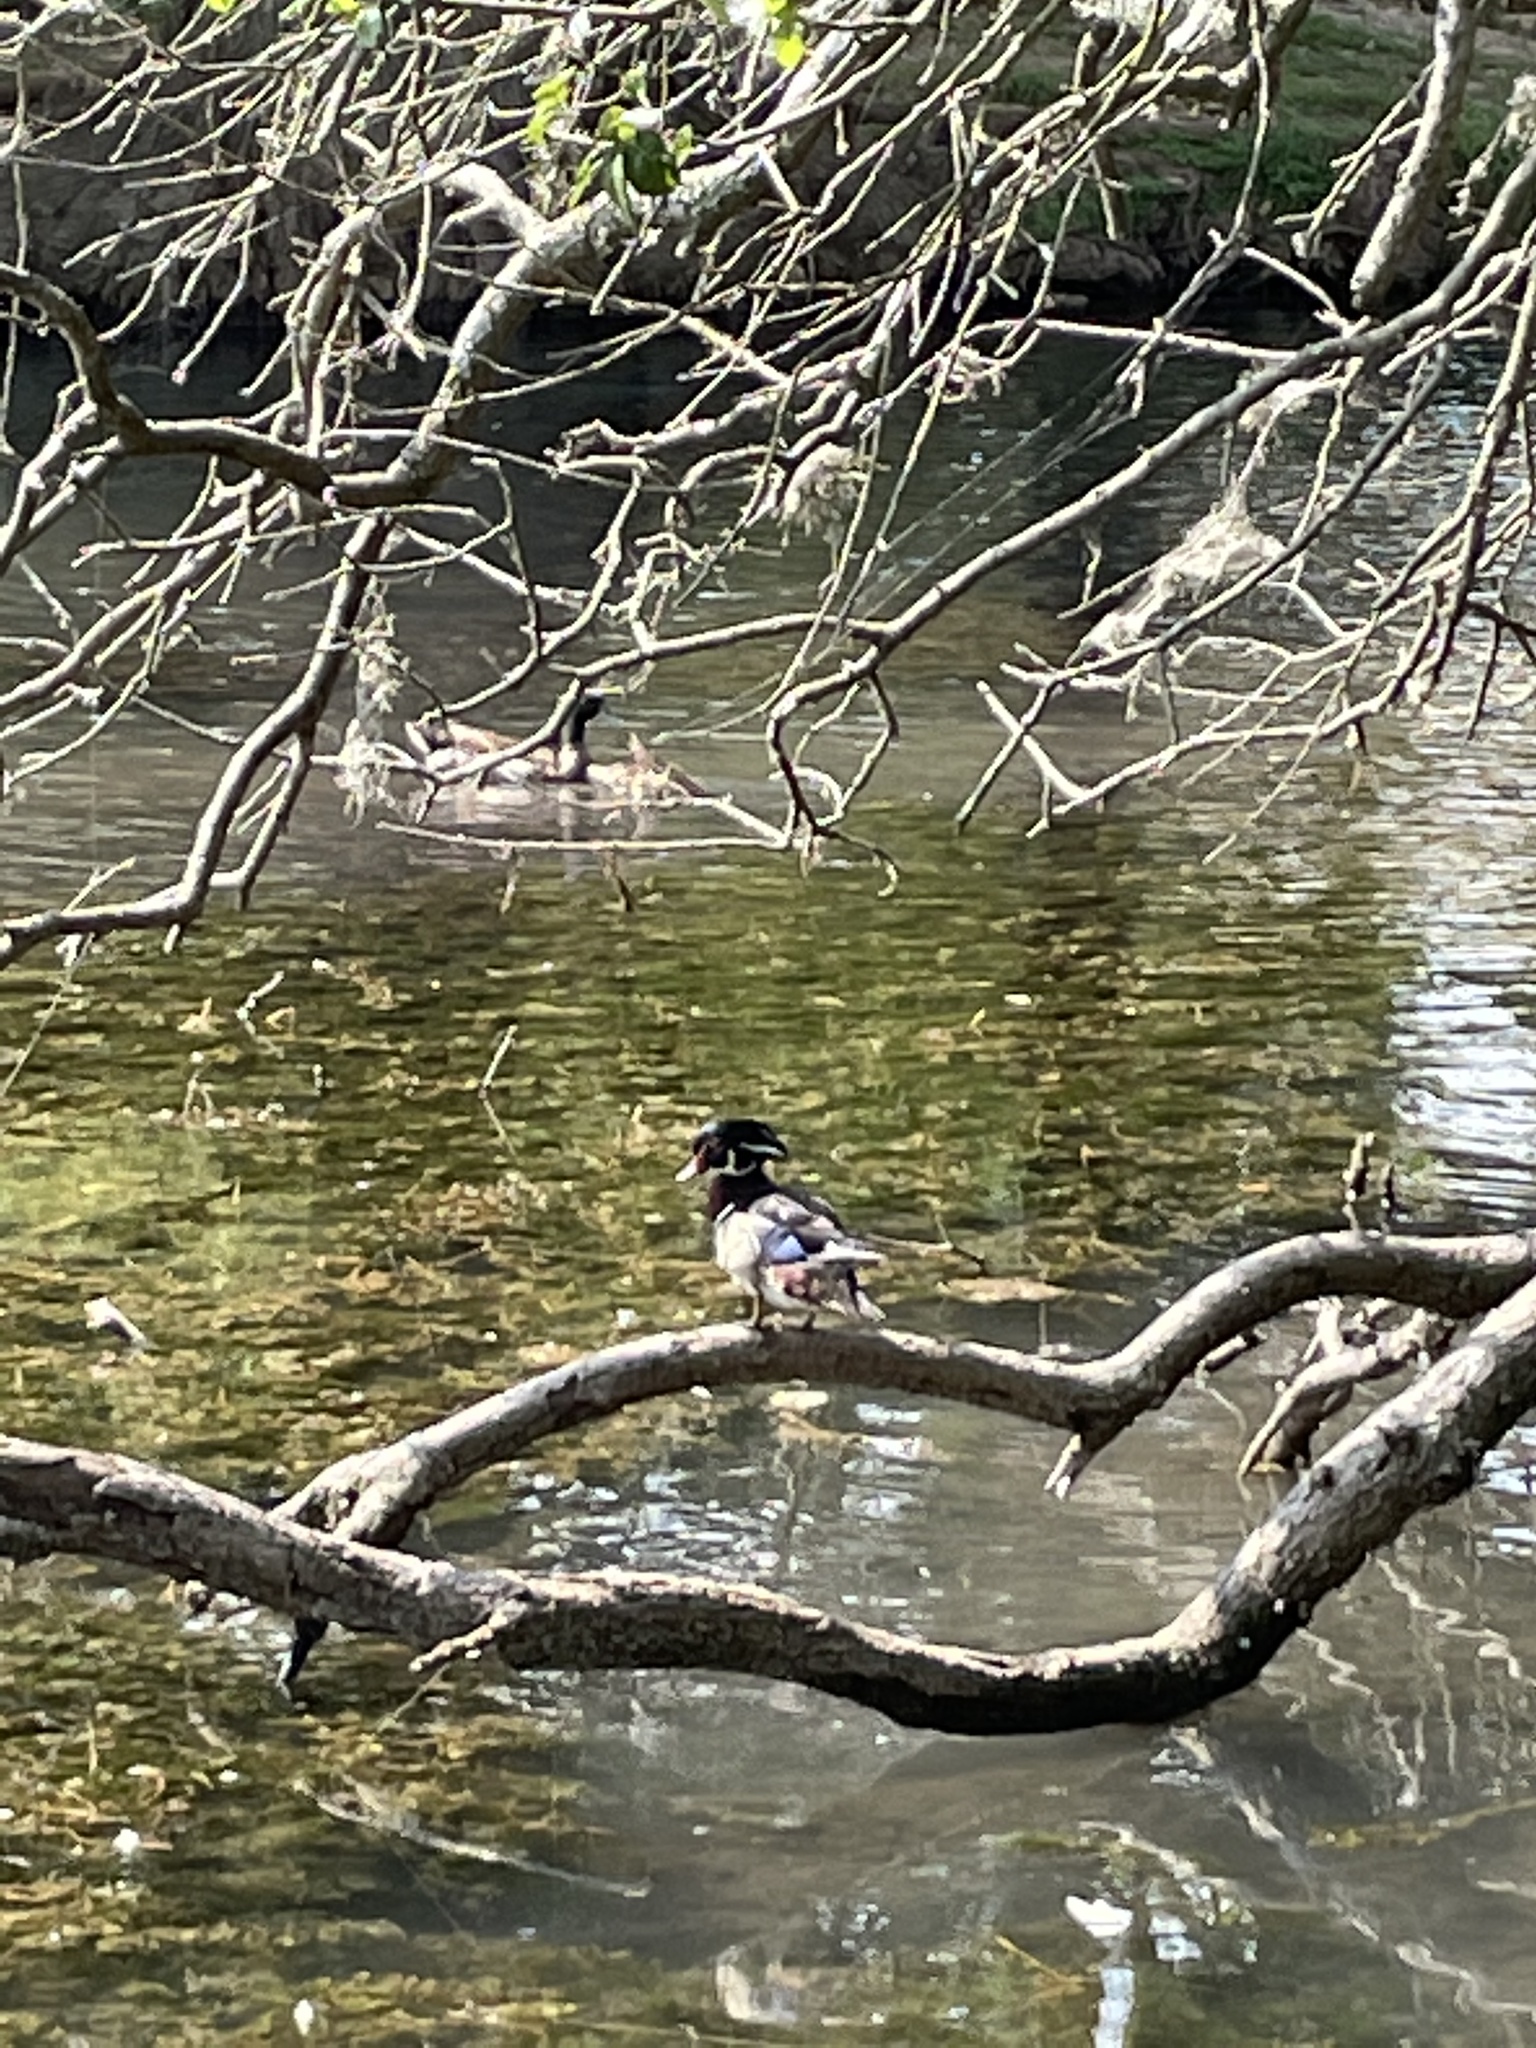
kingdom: Animalia
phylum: Chordata
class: Aves
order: Anseriformes
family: Anatidae
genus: Aix
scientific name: Aix sponsa
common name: Wood duck
